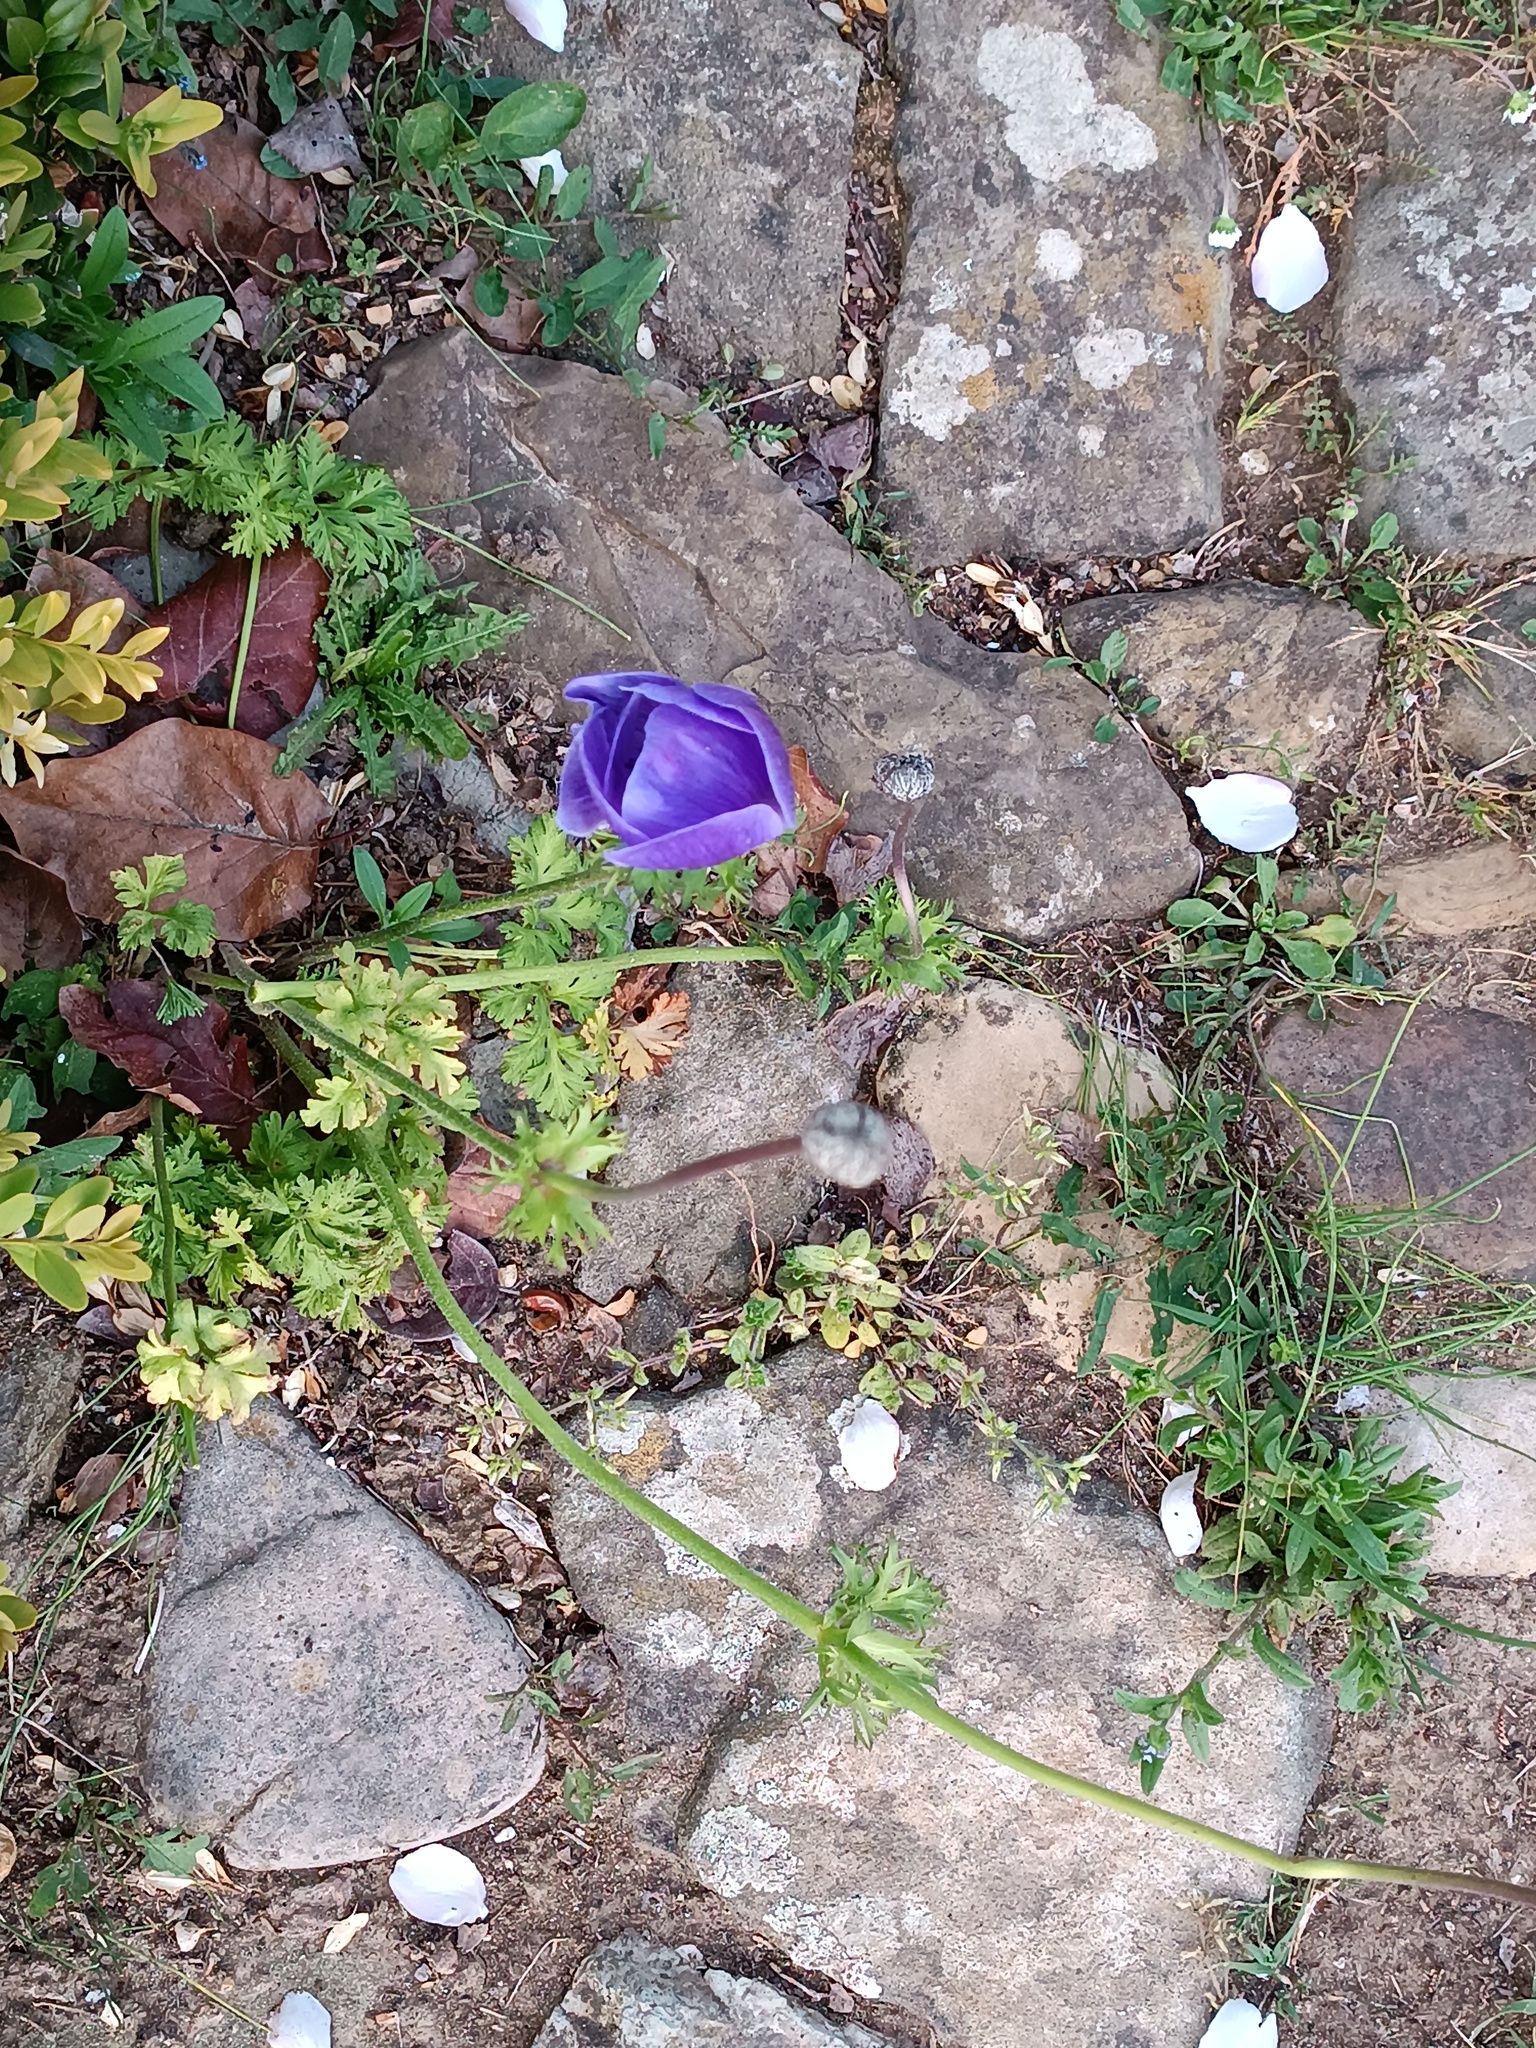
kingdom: Plantae
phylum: Tracheophyta
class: Magnoliopsida
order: Ranunculales
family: Ranunculaceae
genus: Anemone
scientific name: Anemone coronaria
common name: Poppy anemone
